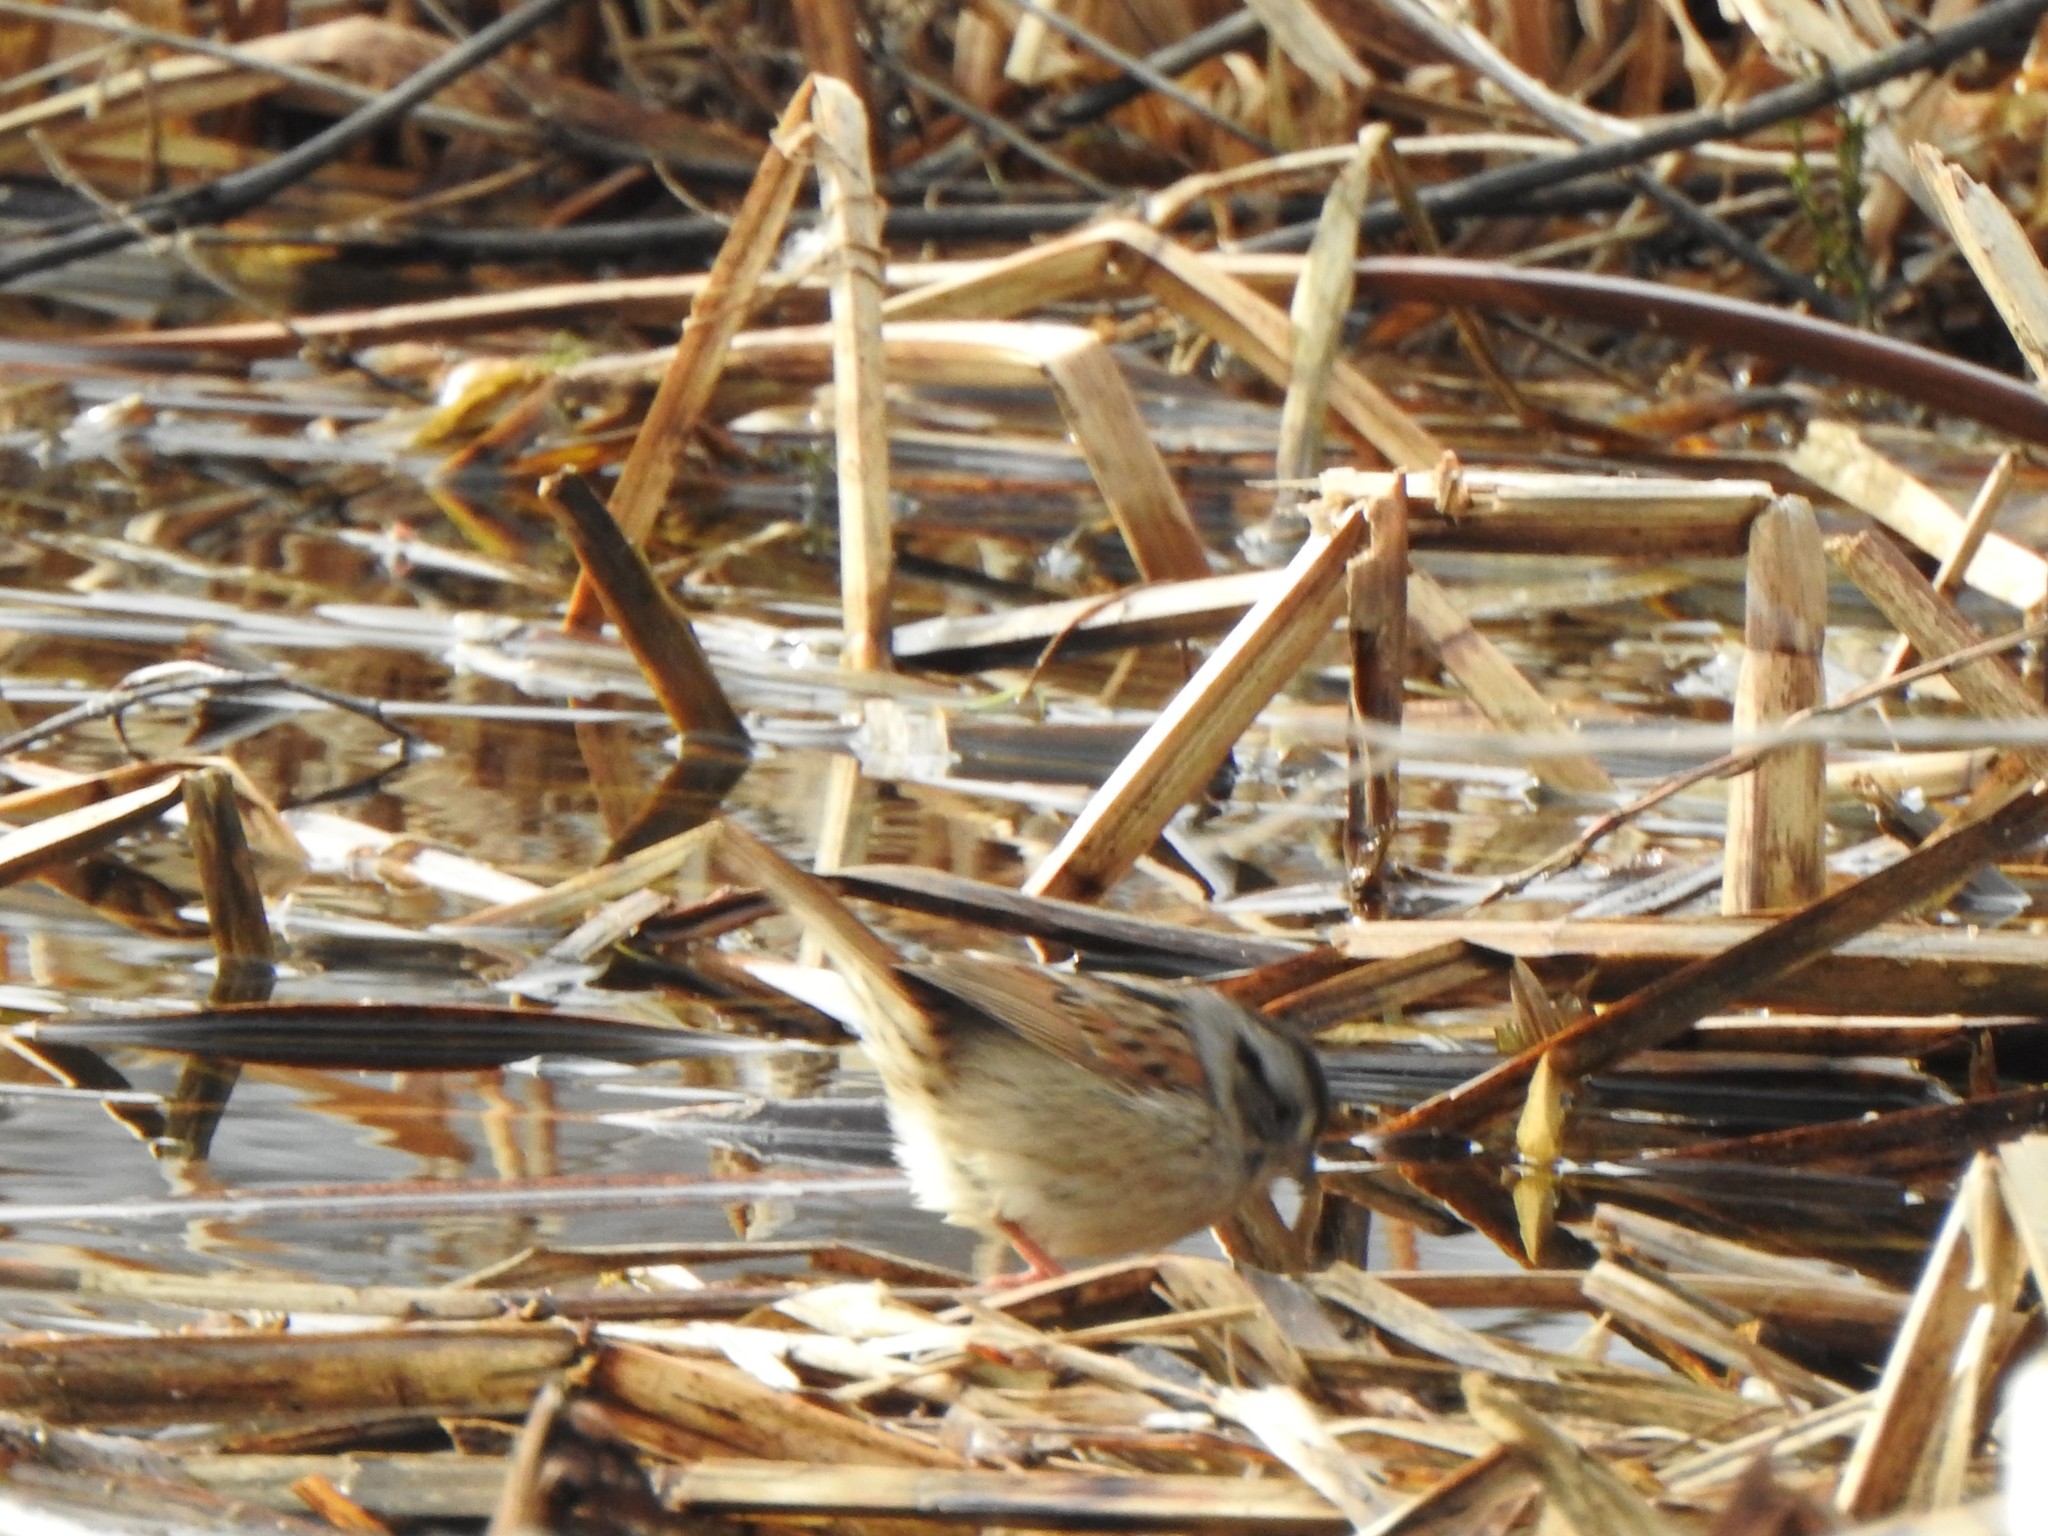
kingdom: Animalia
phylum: Chordata
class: Aves
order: Passeriformes
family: Passerellidae
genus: Melospiza
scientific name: Melospiza georgiana
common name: Swamp sparrow
